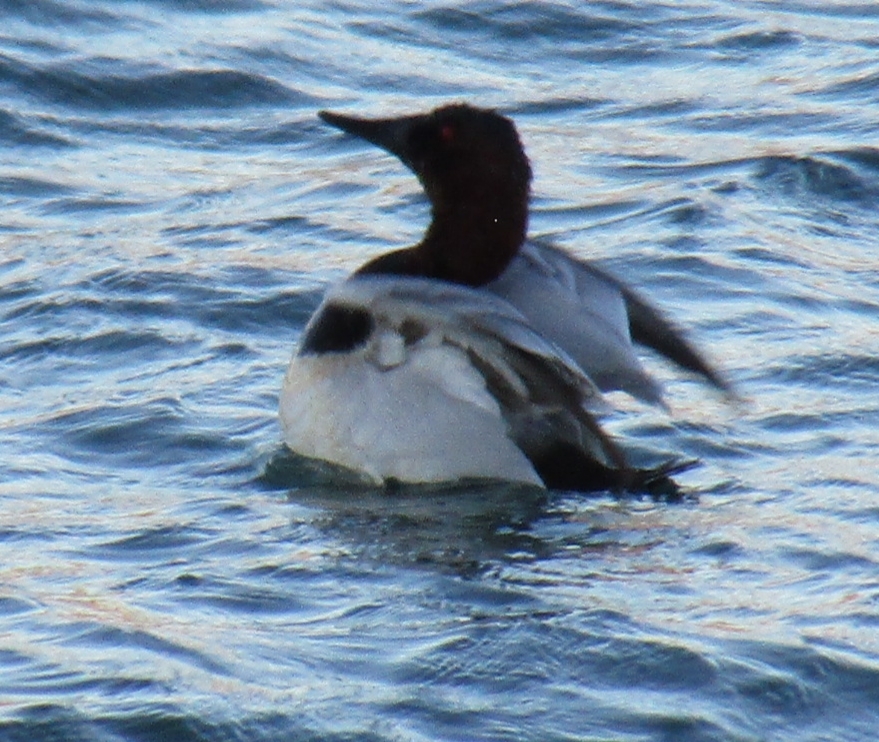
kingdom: Animalia
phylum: Chordata
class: Aves
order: Anseriformes
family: Anatidae
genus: Aythya
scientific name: Aythya valisineria
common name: Canvasback
